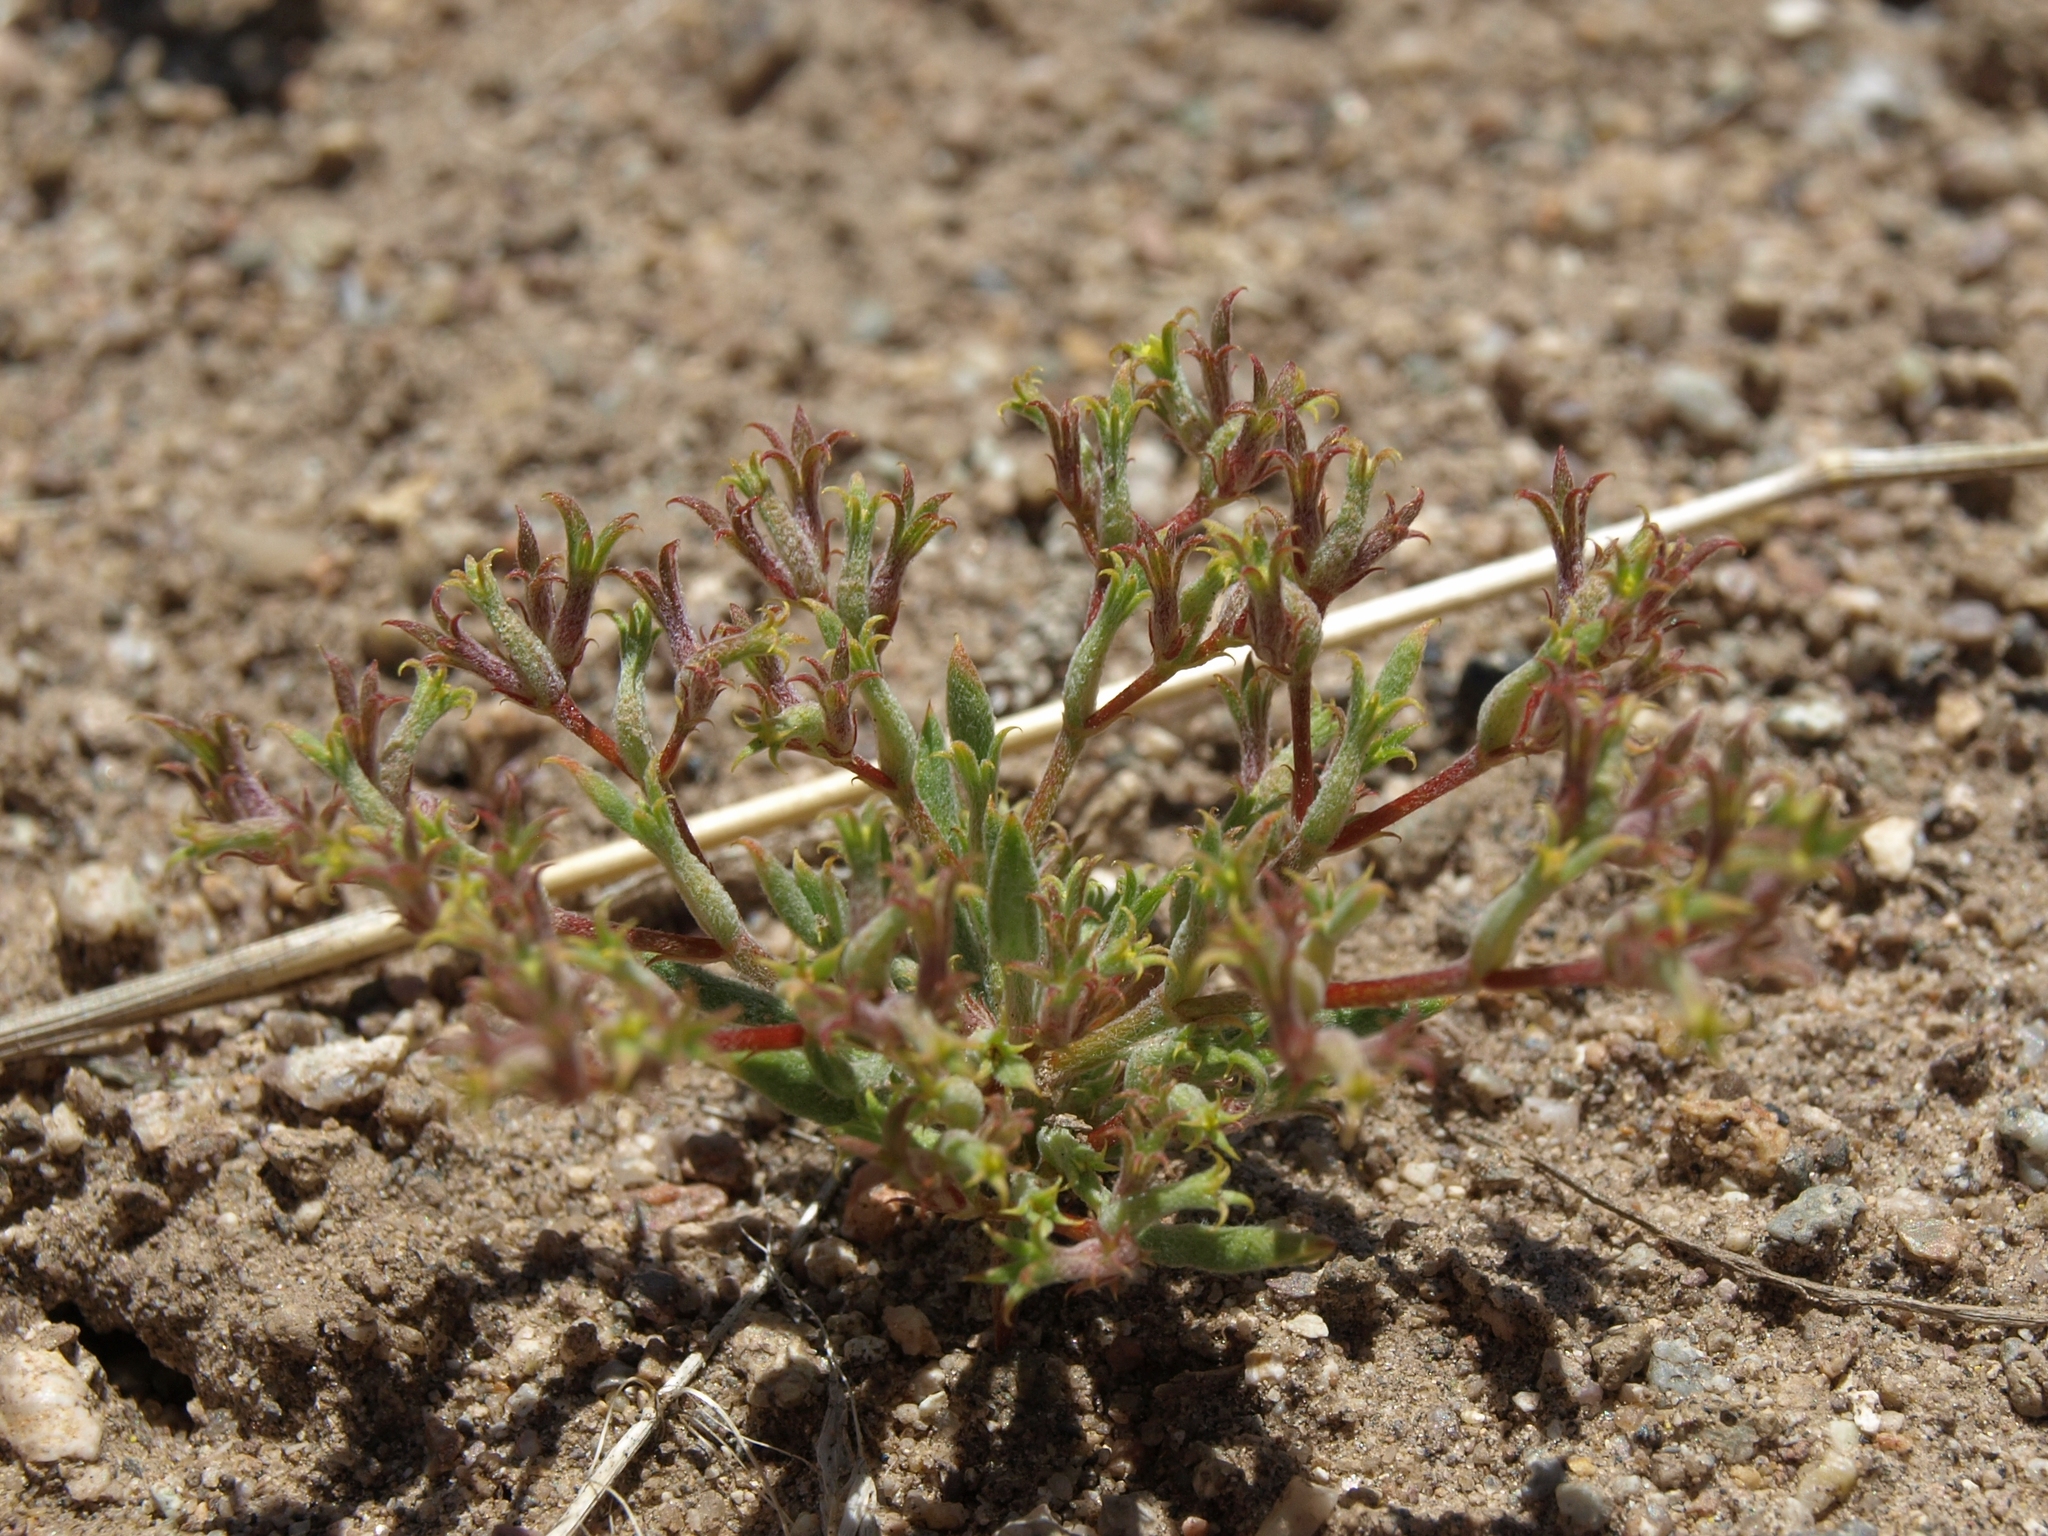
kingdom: Plantae
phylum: Tracheophyta
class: Magnoliopsida
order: Caryophyllales
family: Polygonaceae
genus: Chorizanthe
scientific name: Chorizanthe watsonii
